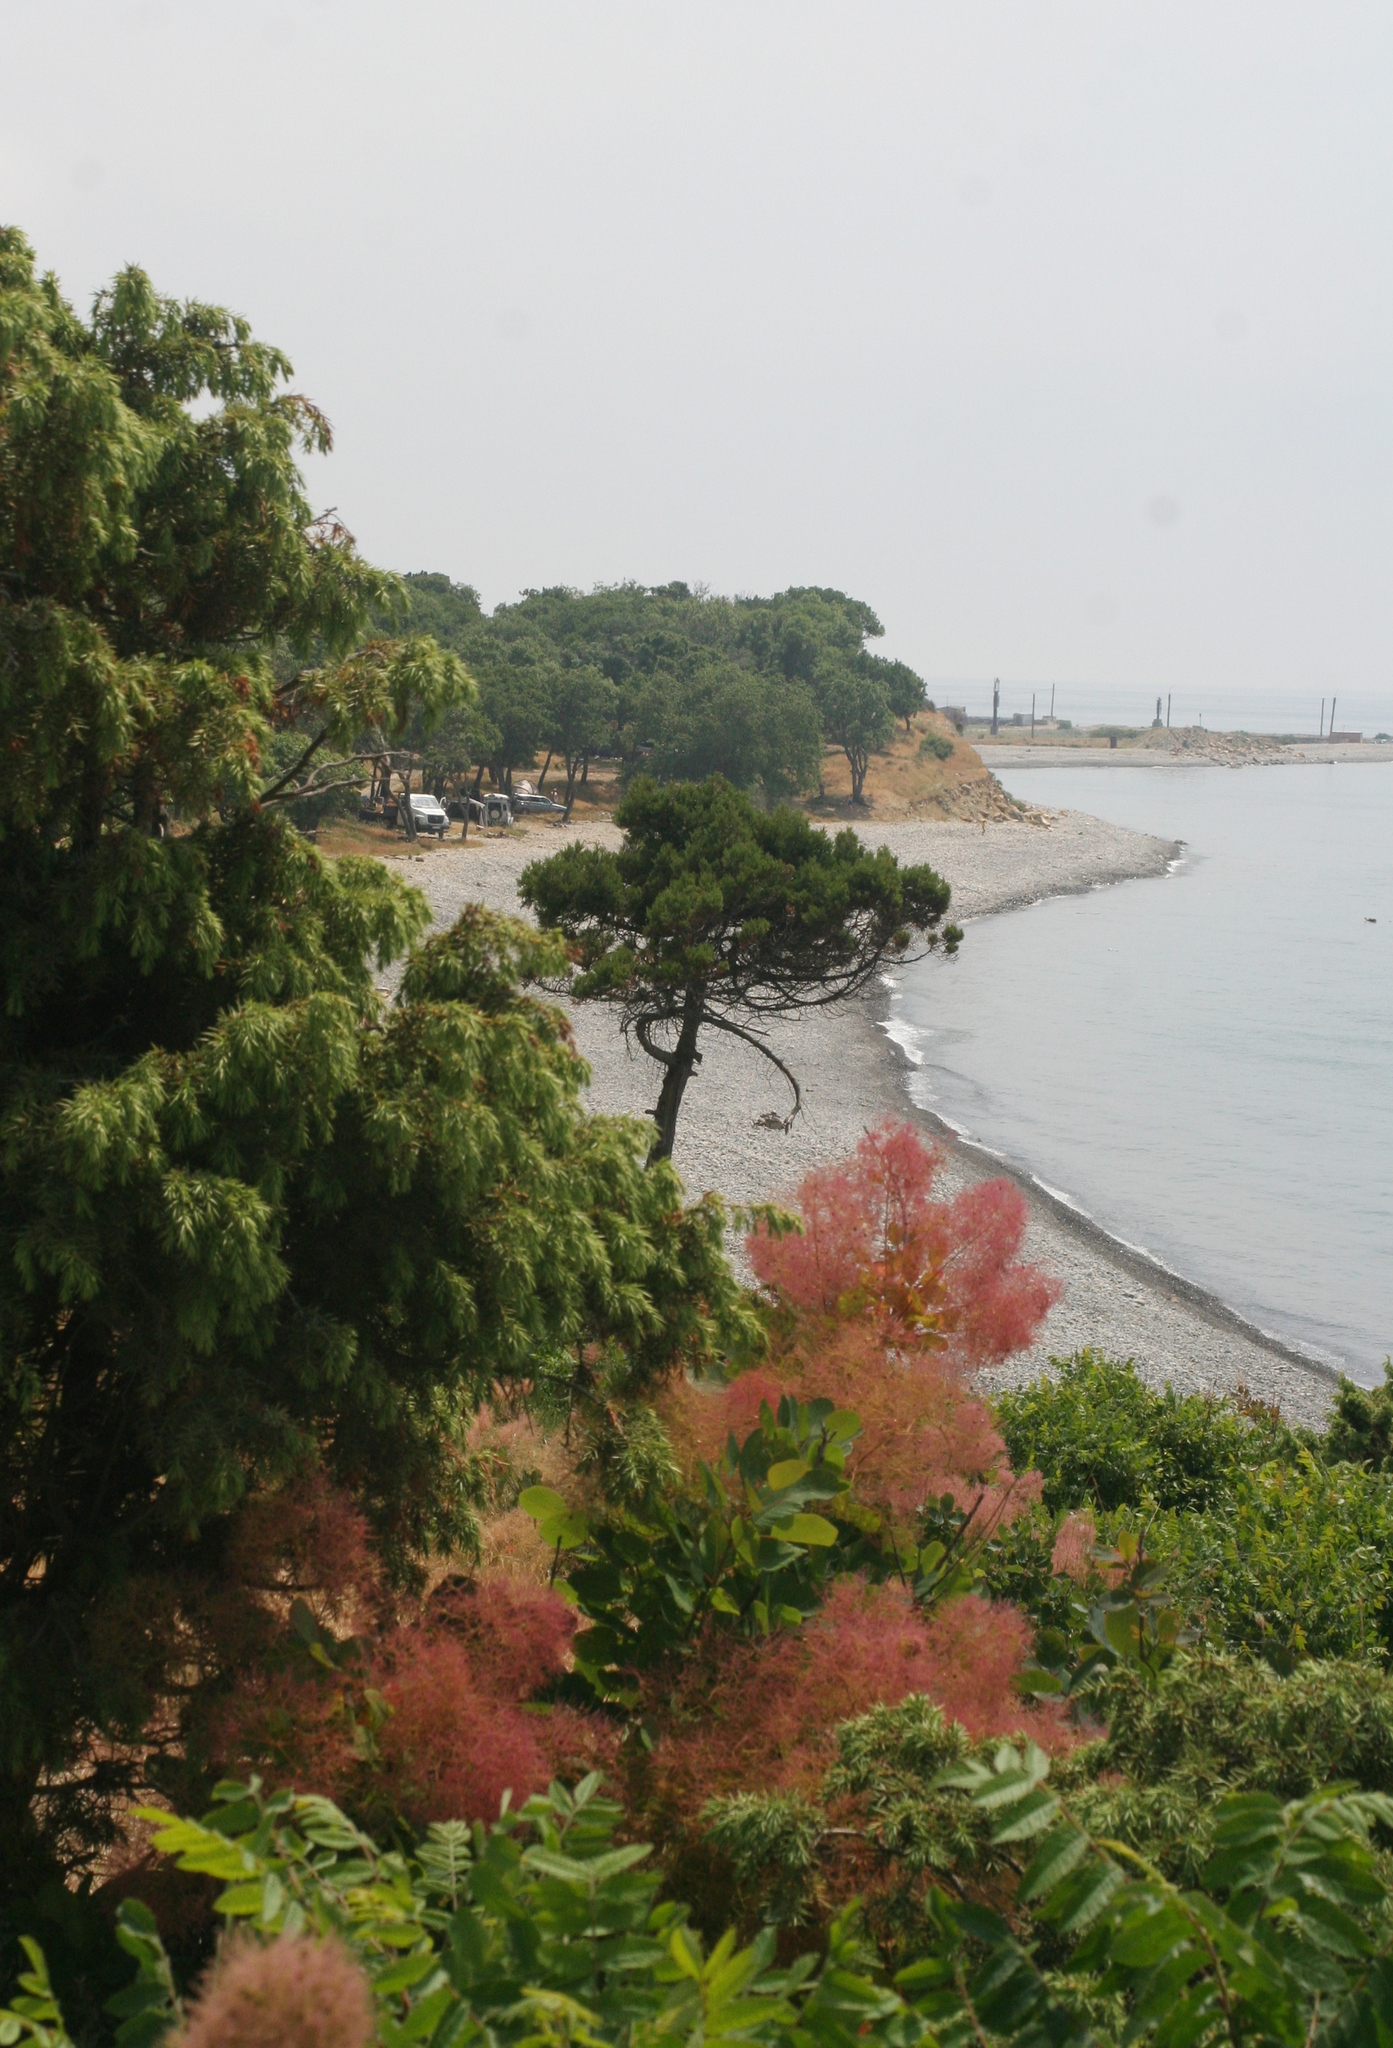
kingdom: Plantae
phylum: Tracheophyta
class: Magnoliopsida
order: Sapindales
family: Anacardiaceae
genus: Cotinus
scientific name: Cotinus coggygria
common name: Smoke-tree
